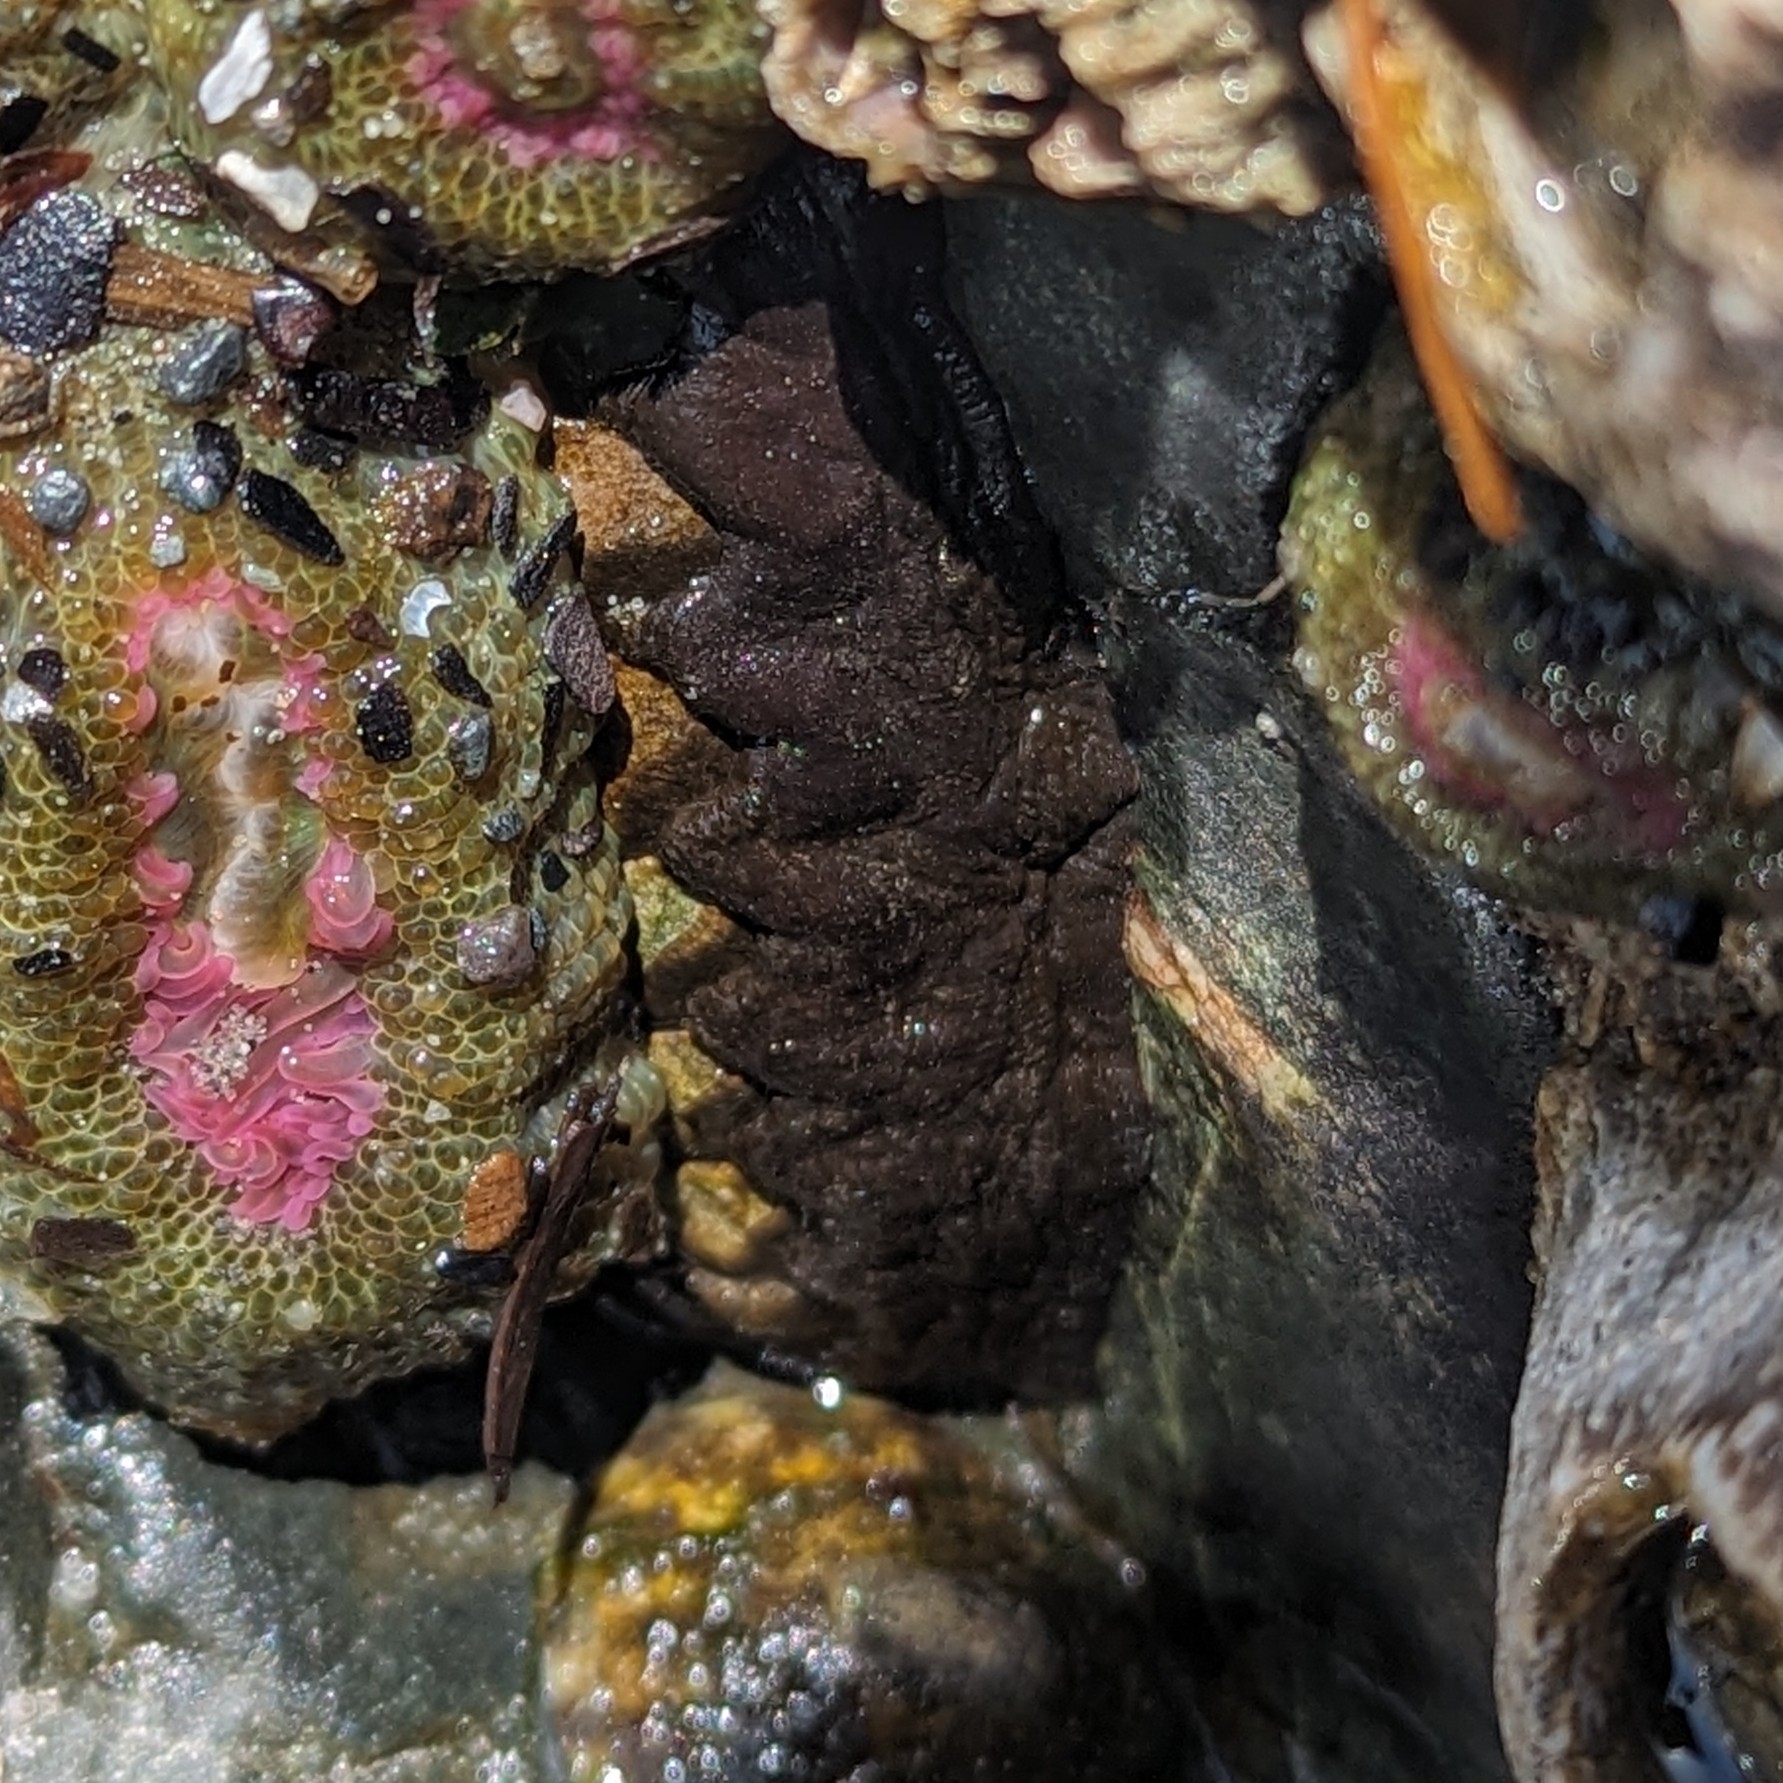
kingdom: Animalia
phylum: Mollusca
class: Polyplacophora
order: Chitonida
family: Mopaliidae
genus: Katharina
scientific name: Katharina tunicata
